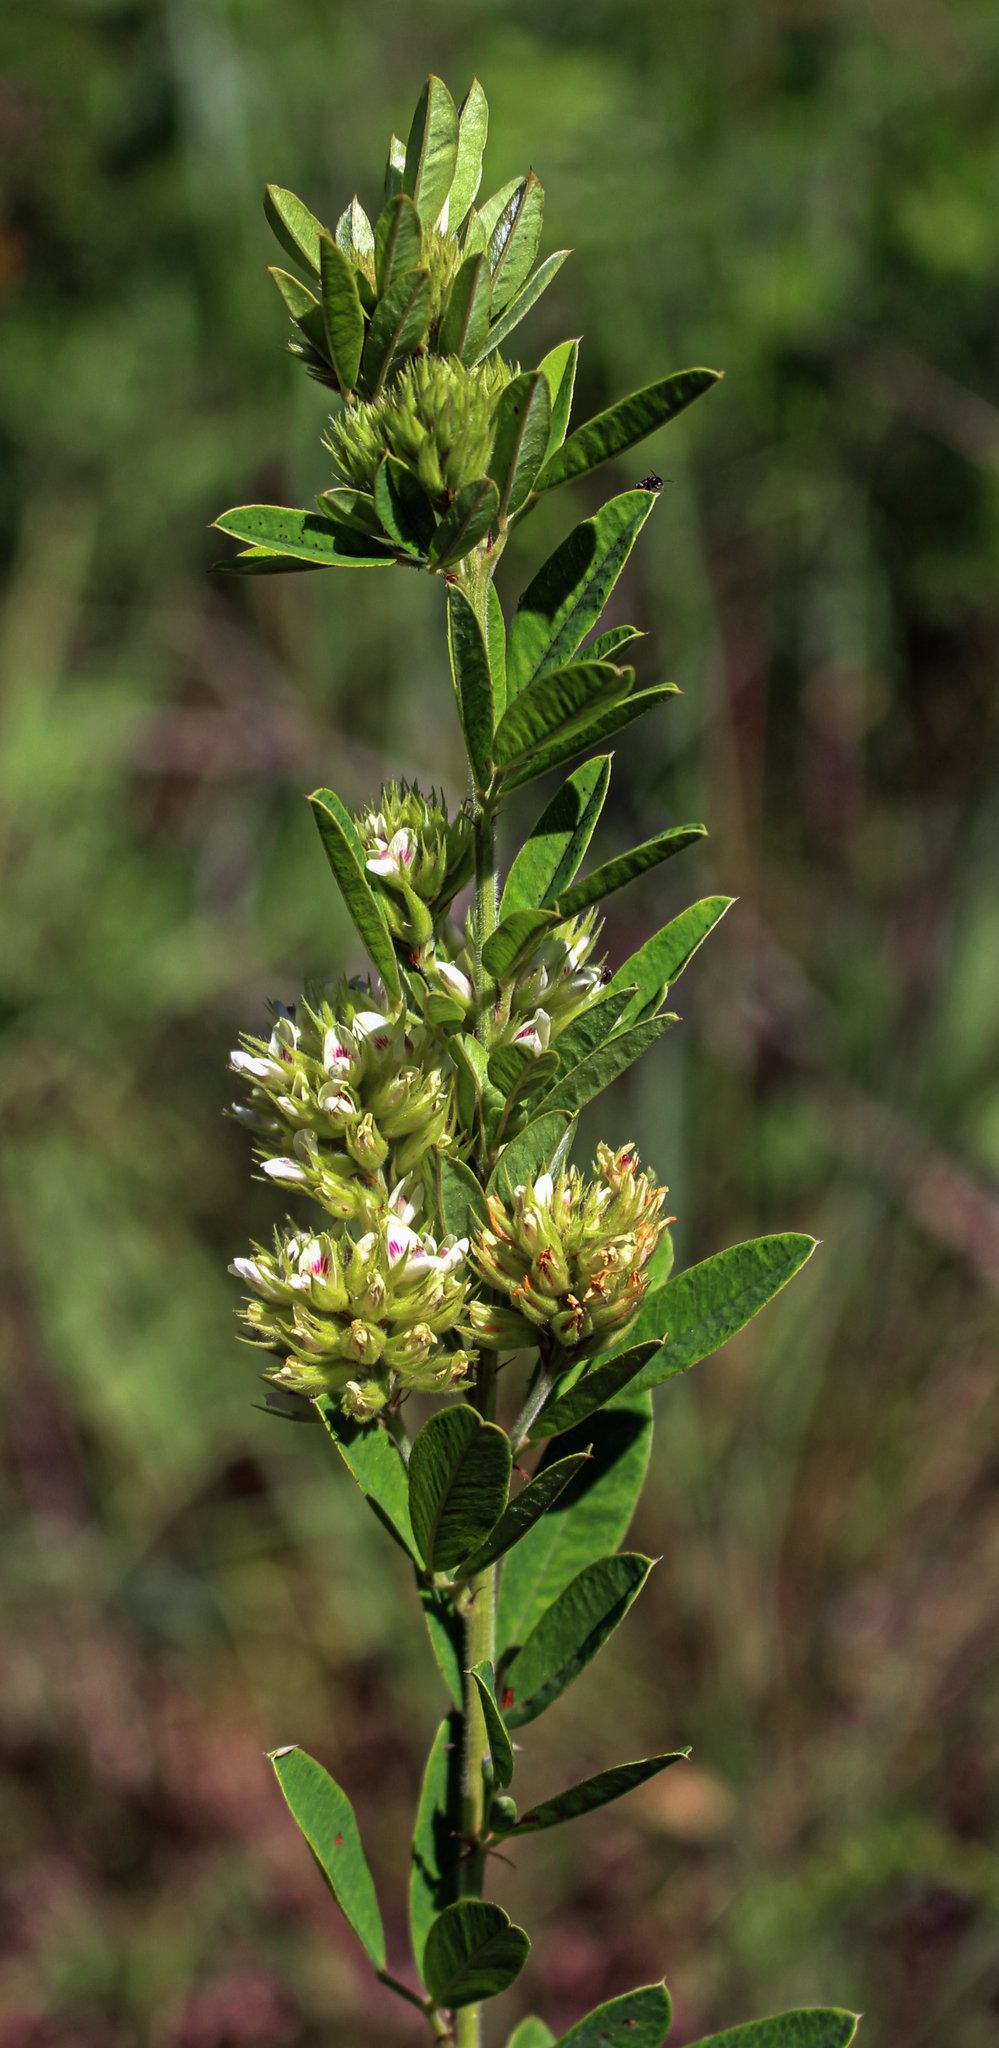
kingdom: Plantae
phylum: Tracheophyta
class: Magnoliopsida
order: Fabales
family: Fabaceae
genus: Lespedeza
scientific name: Lespedeza capitata
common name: Dusty clover
